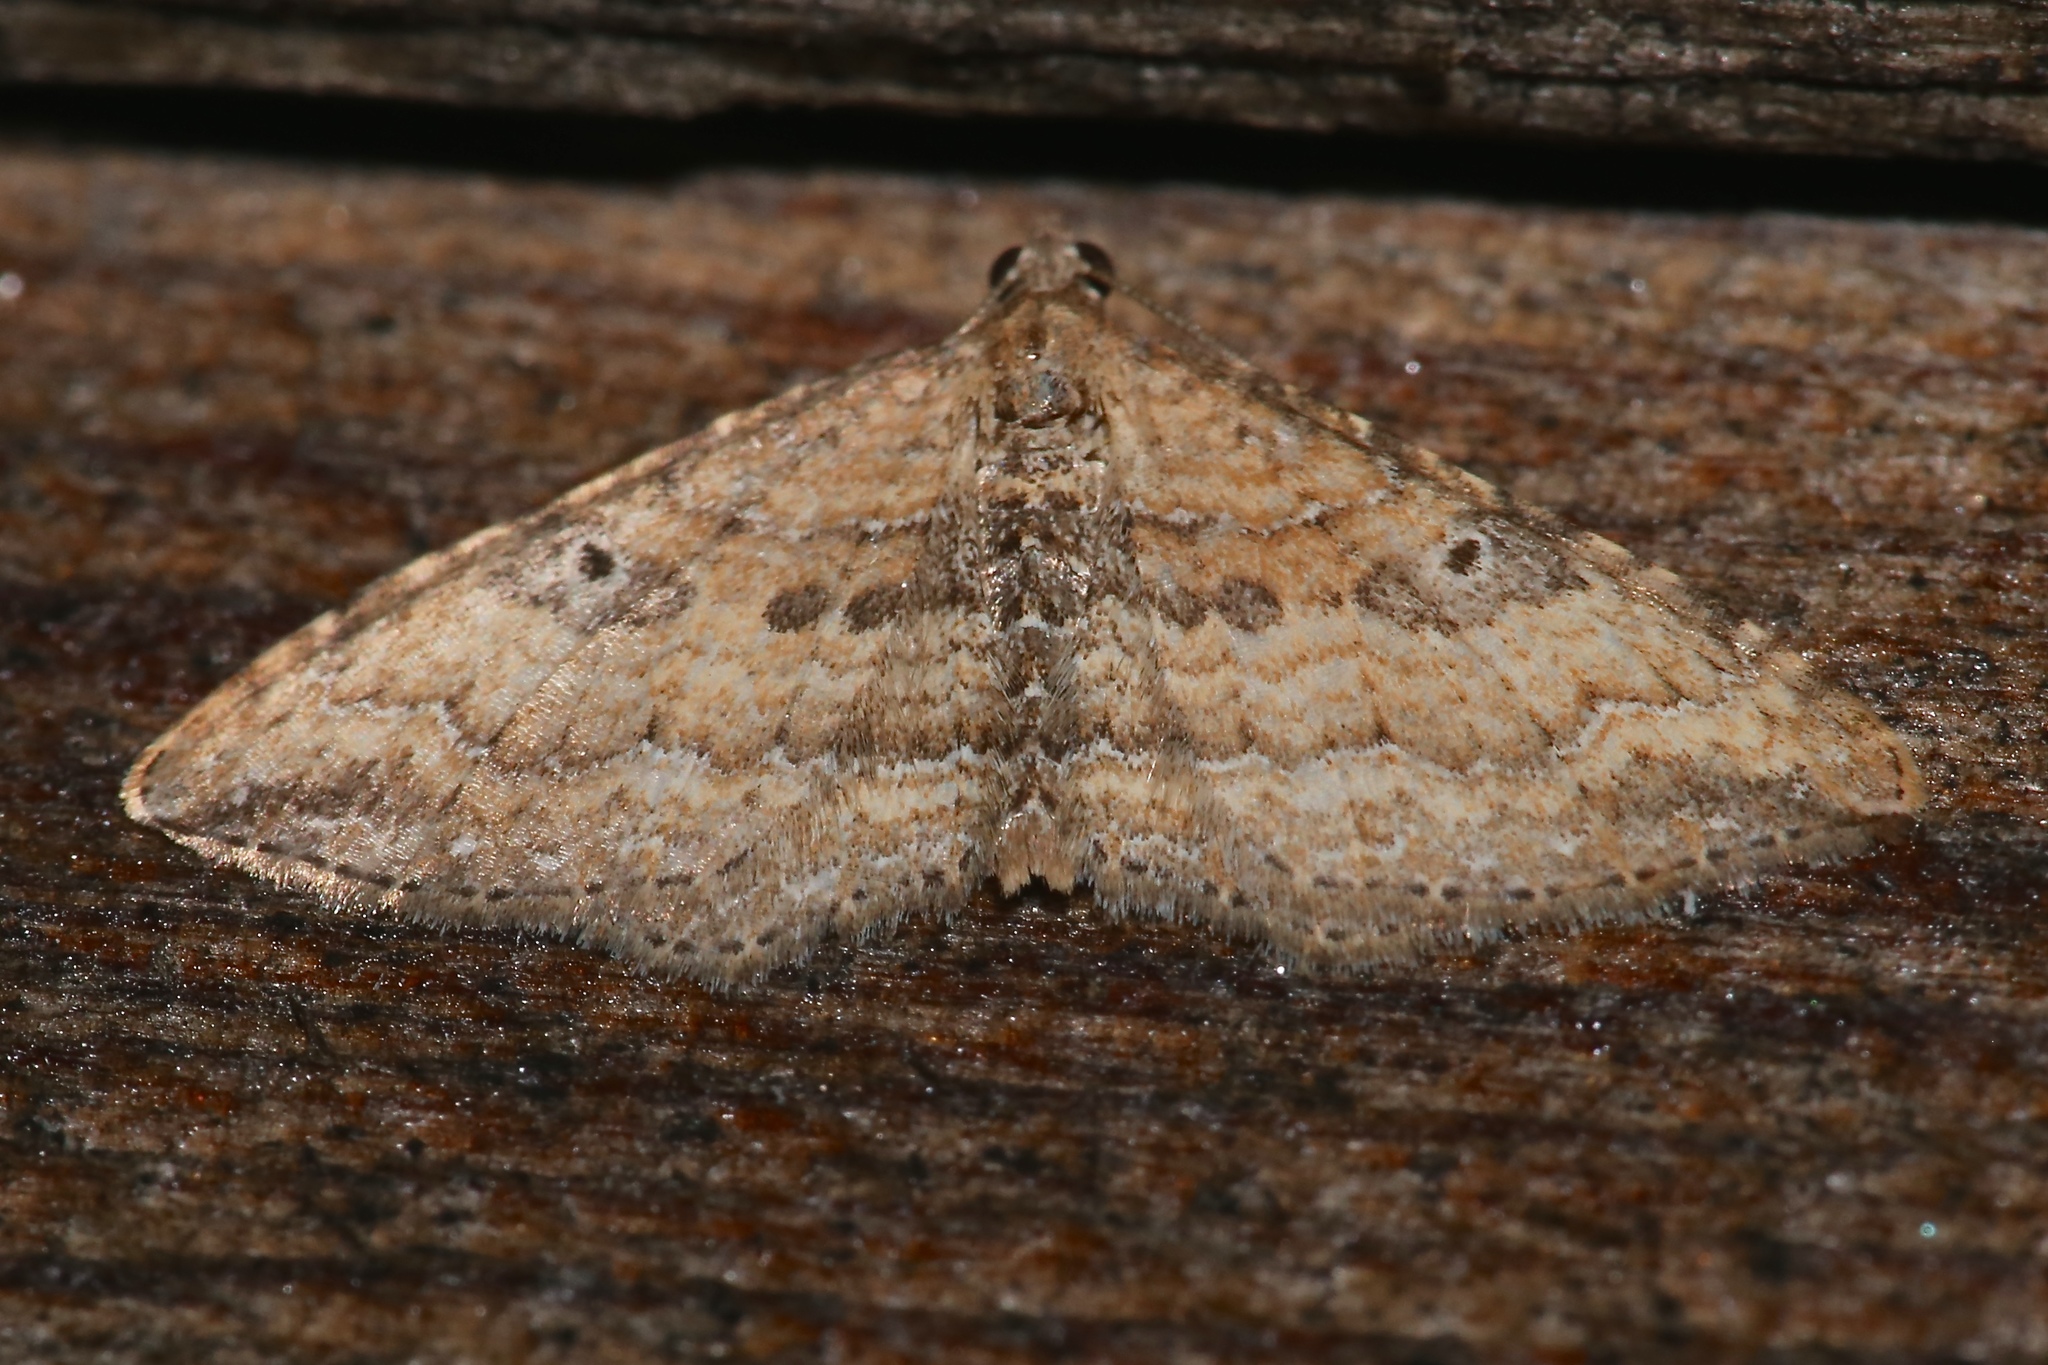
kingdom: Animalia
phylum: Arthropoda
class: Insecta
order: Lepidoptera
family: Geometridae
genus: Orthonama
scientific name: Orthonama obstipata
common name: The gem
